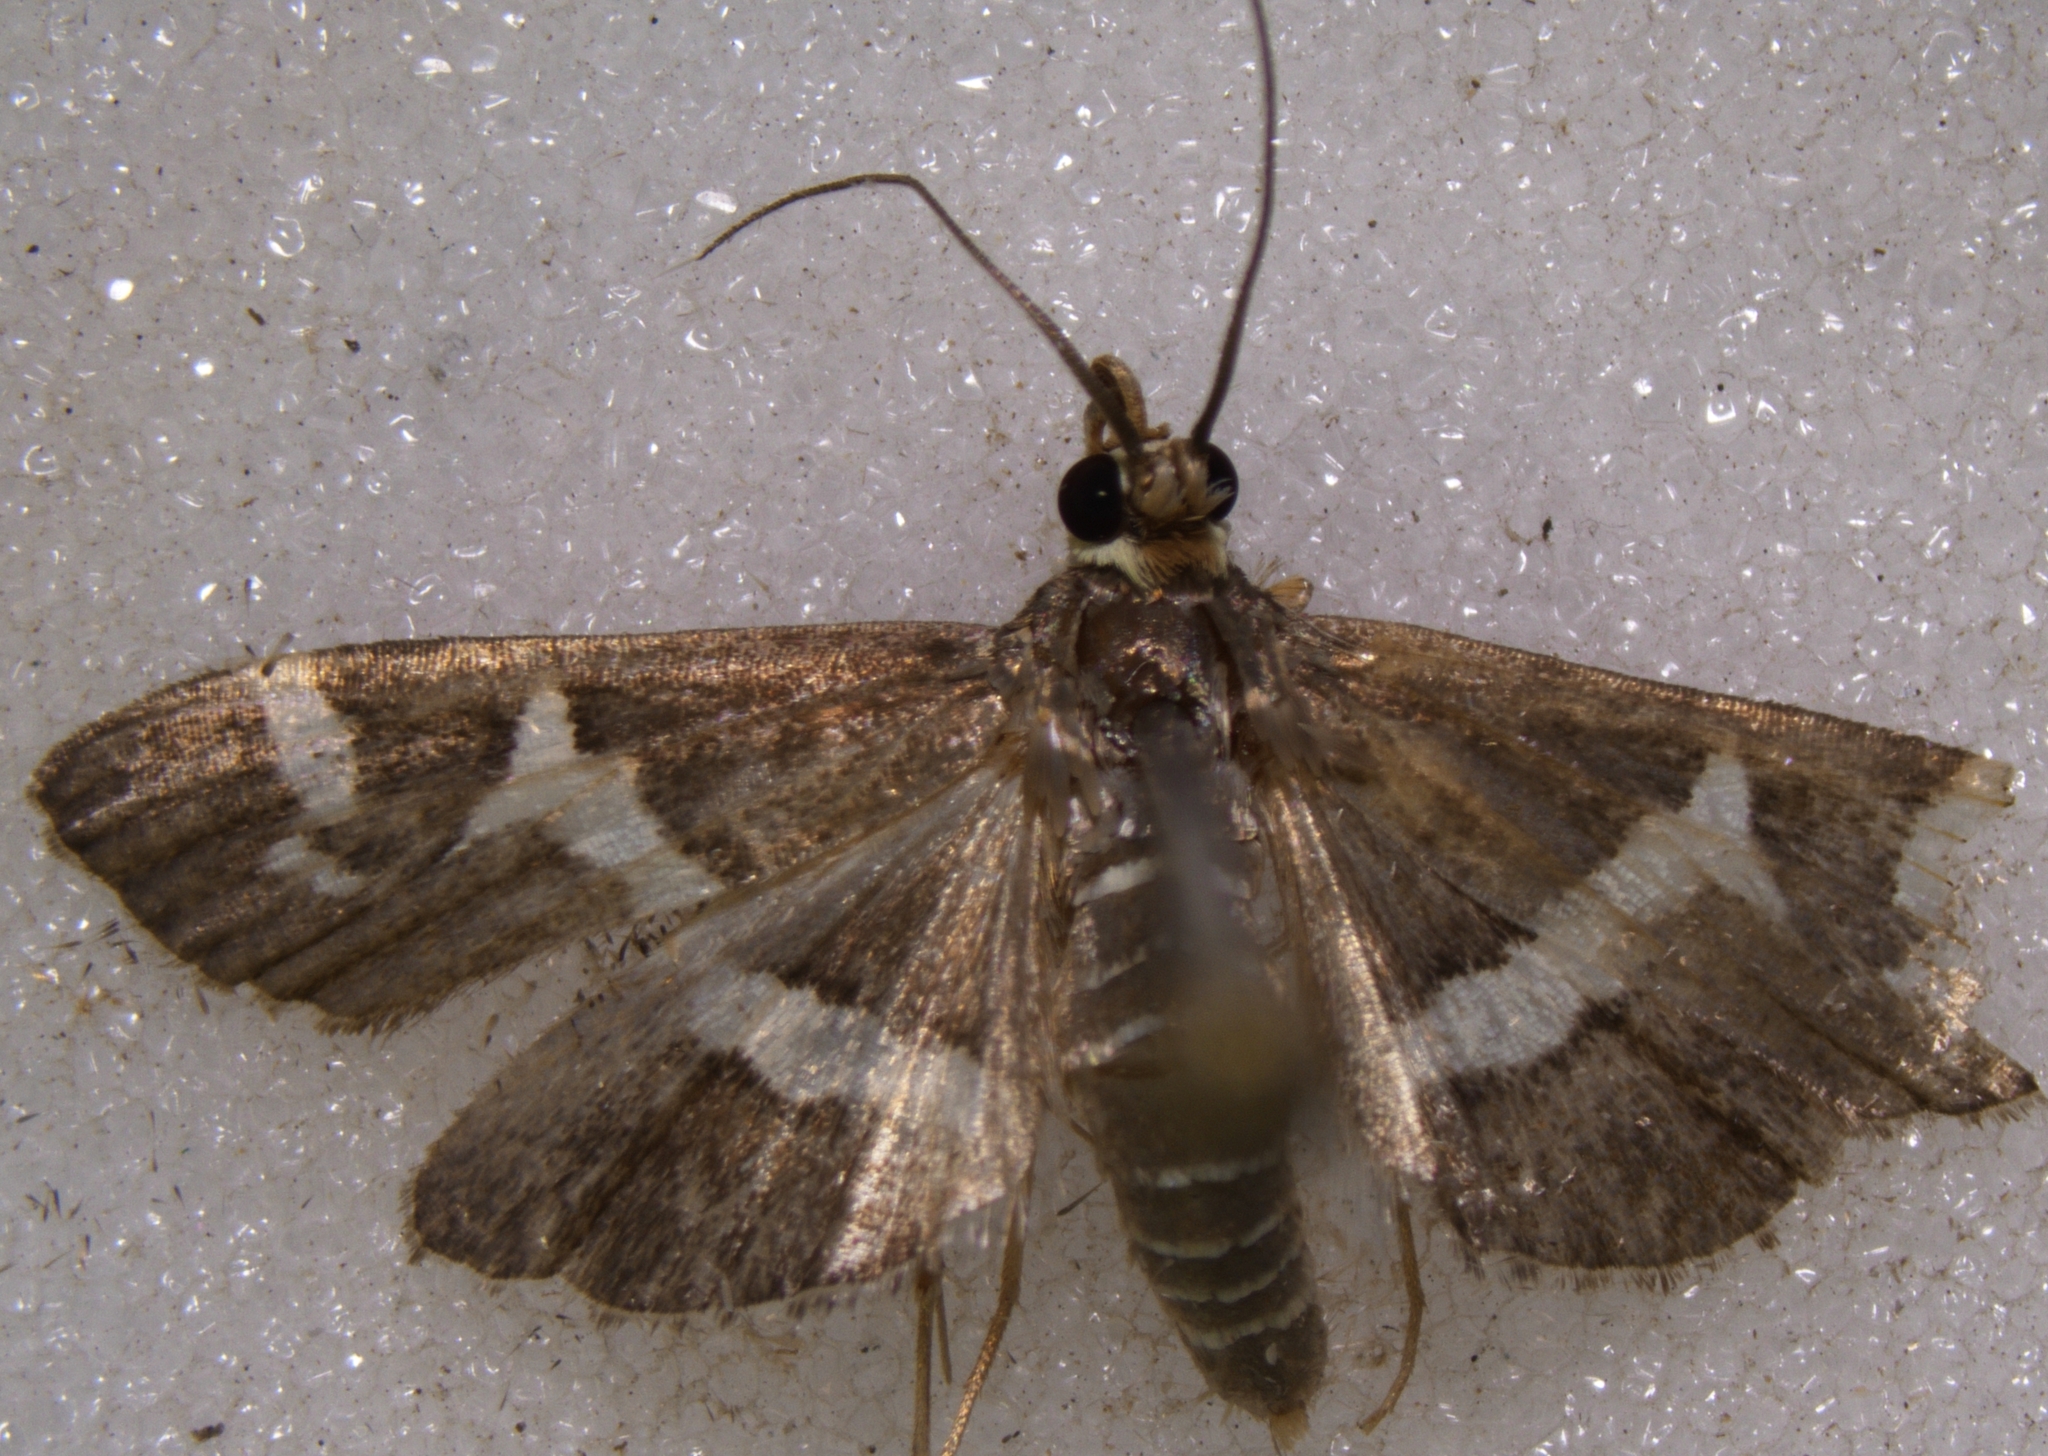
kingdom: Animalia
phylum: Arthropoda
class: Insecta
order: Lepidoptera
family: Crambidae
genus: Spoladea
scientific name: Spoladea recurvalis
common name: Beet webworm moth
